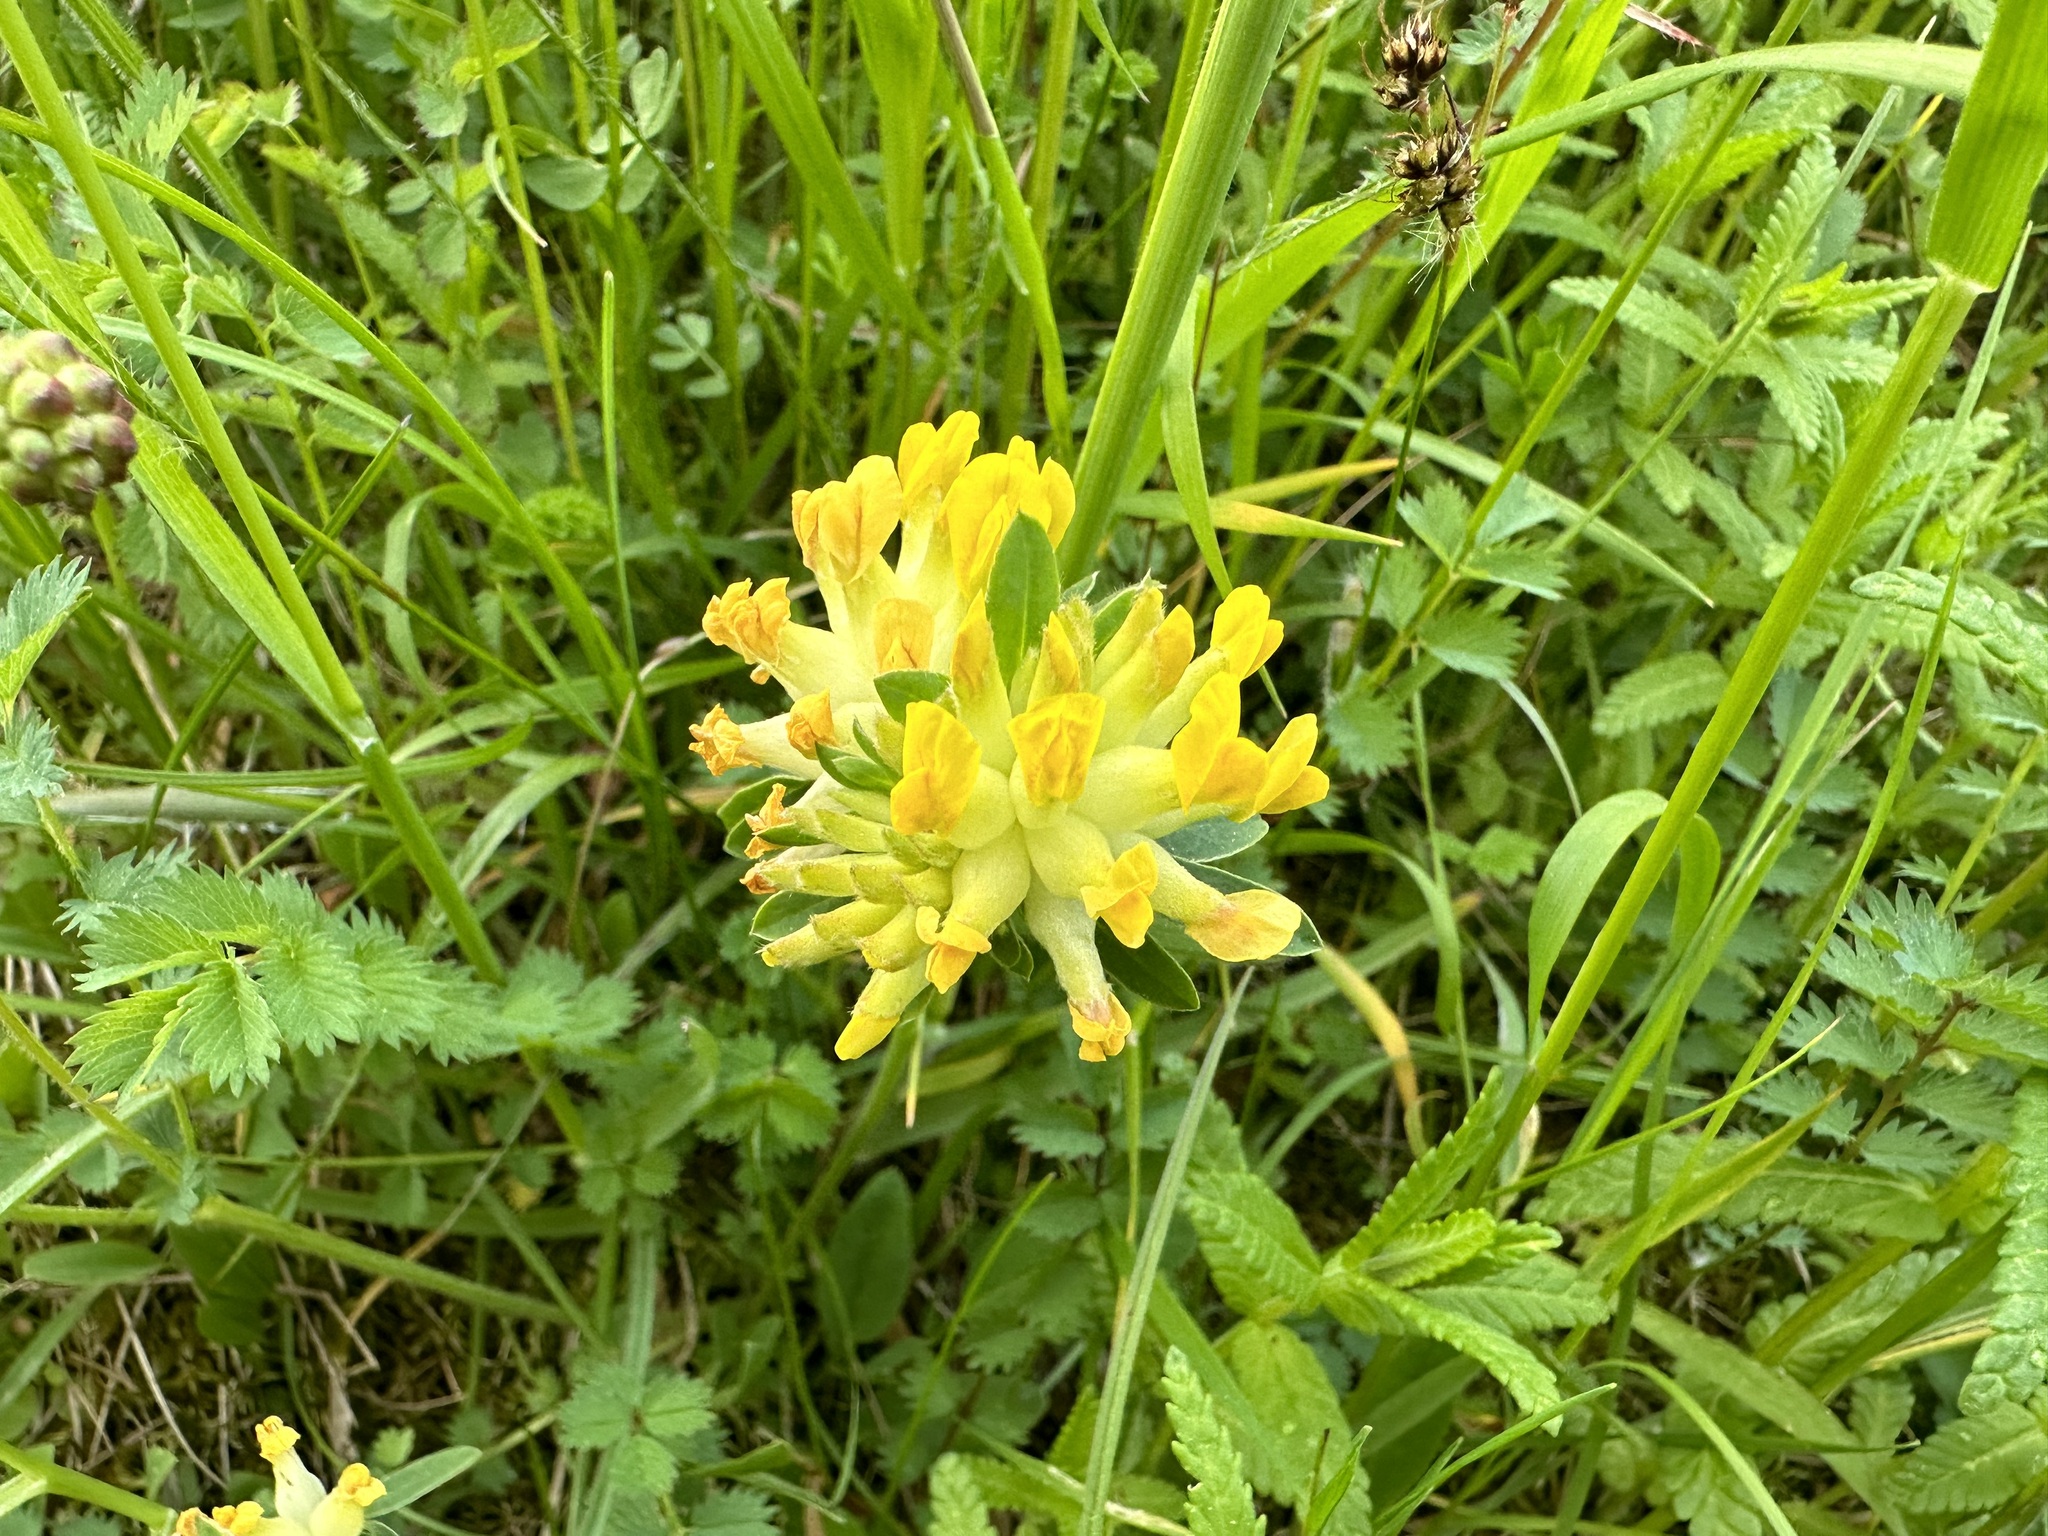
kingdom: Plantae
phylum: Tracheophyta
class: Magnoliopsida
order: Fabales
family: Fabaceae
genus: Anthyllis
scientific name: Anthyllis vulneraria
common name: Kidney vetch
